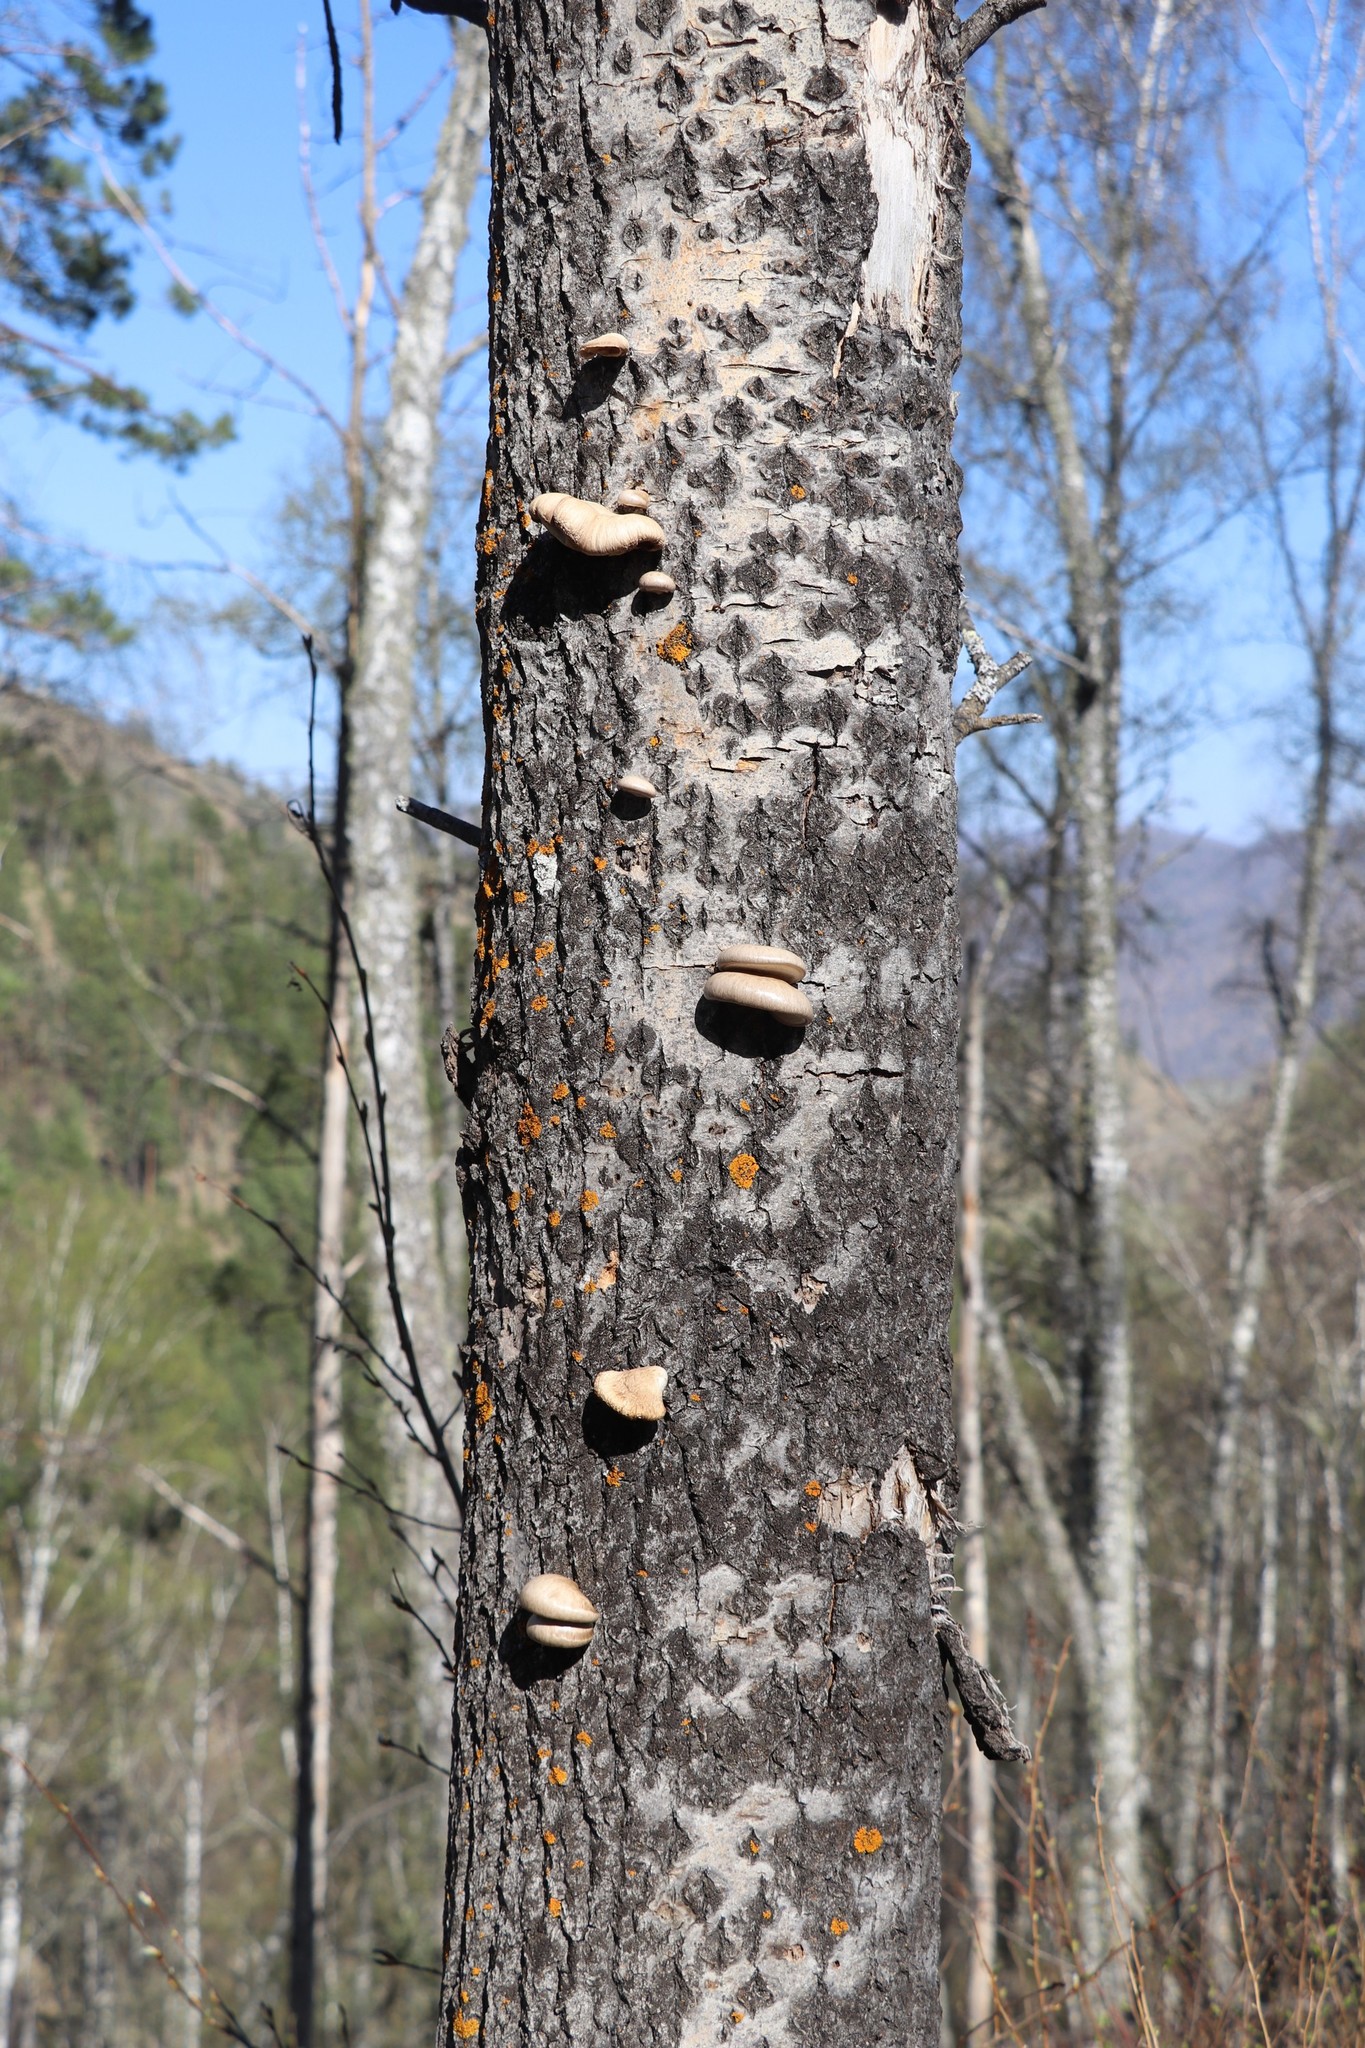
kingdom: Fungi
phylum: Basidiomycota
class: Agaricomycetes
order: Agaricales
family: Pleurotaceae
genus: Pleurotus
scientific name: Pleurotus calyptratus
